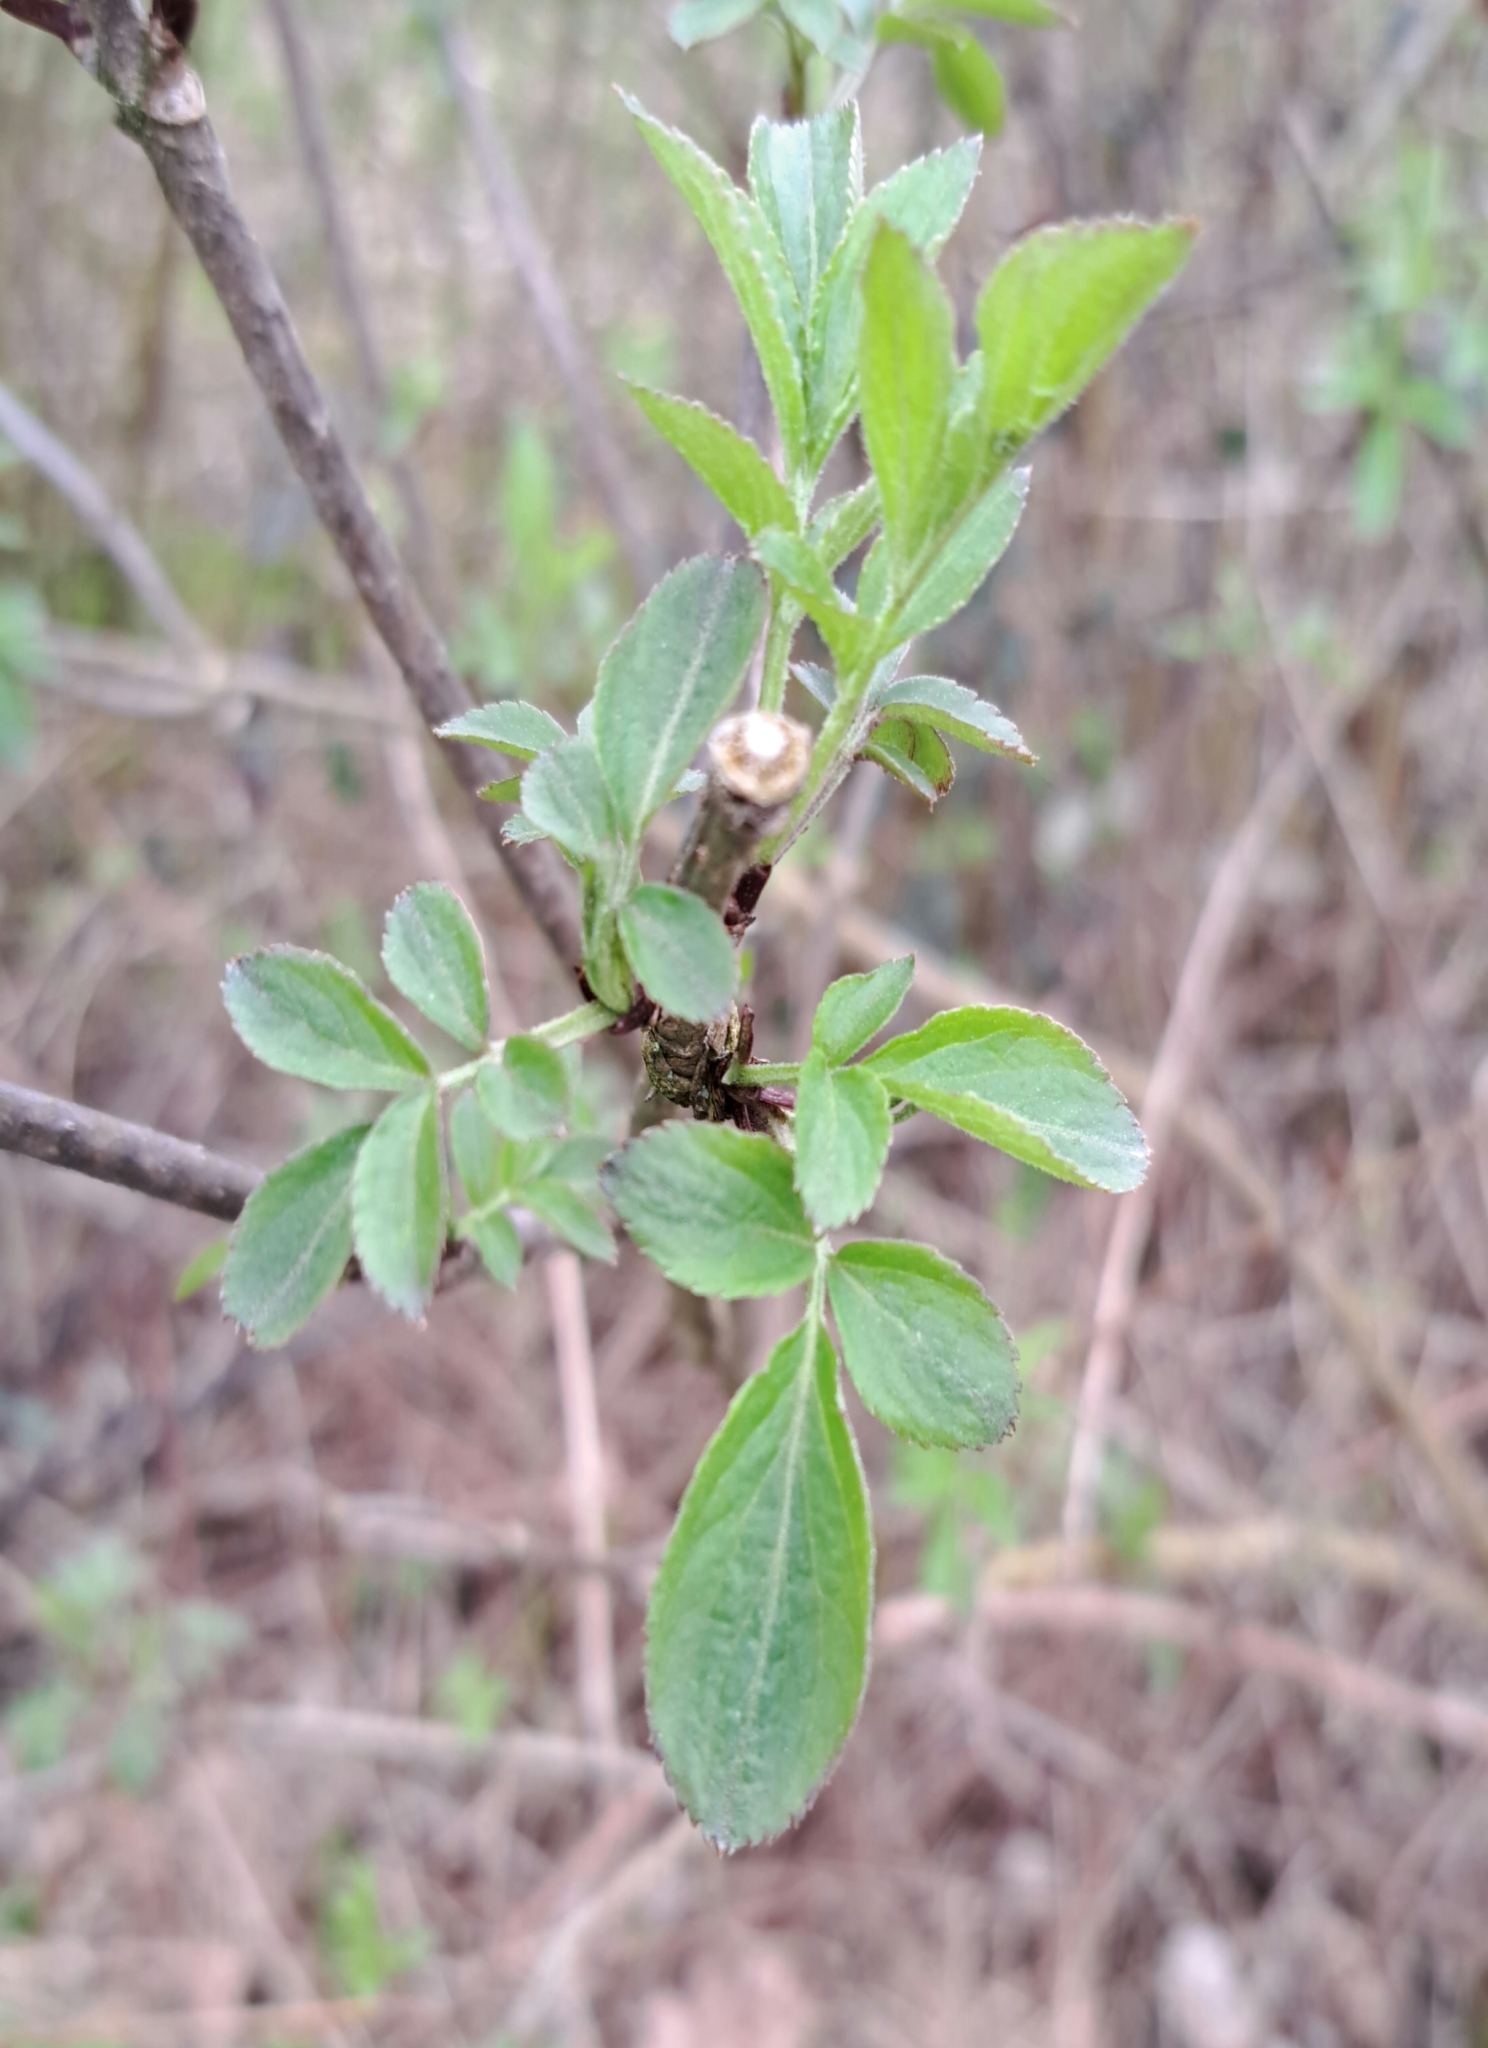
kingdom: Plantae
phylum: Tracheophyta
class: Magnoliopsida
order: Dipsacales
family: Viburnaceae
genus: Sambucus
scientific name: Sambucus nigra
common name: Elder
